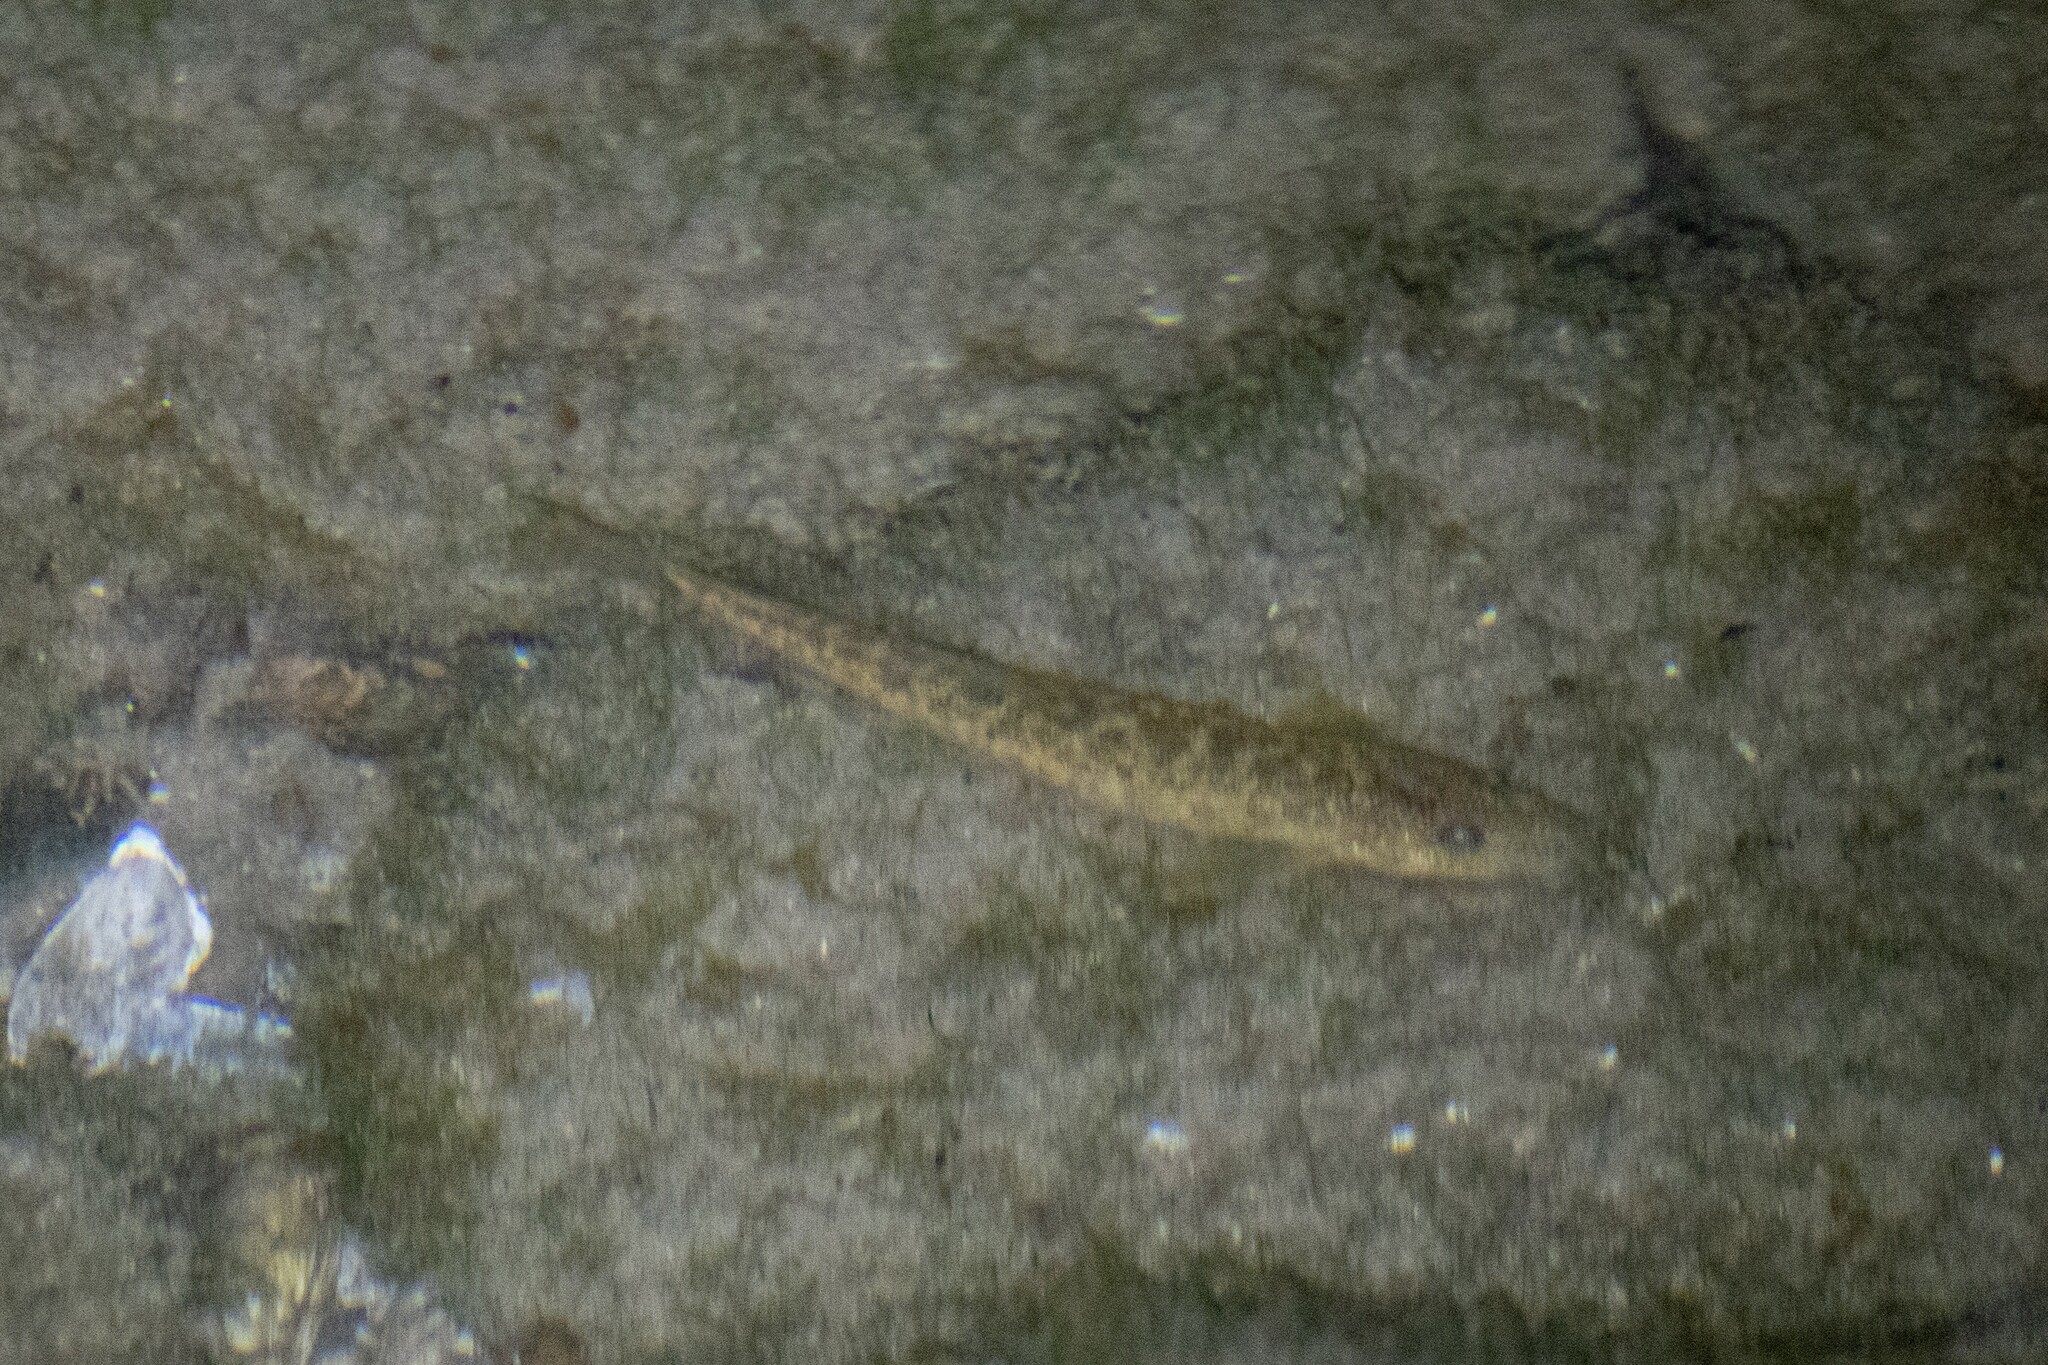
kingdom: Animalia
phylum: Chordata
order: Cypriniformes
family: Nemacheilidae
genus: Barbatula
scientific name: Barbatula barbatula
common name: Stone loach
